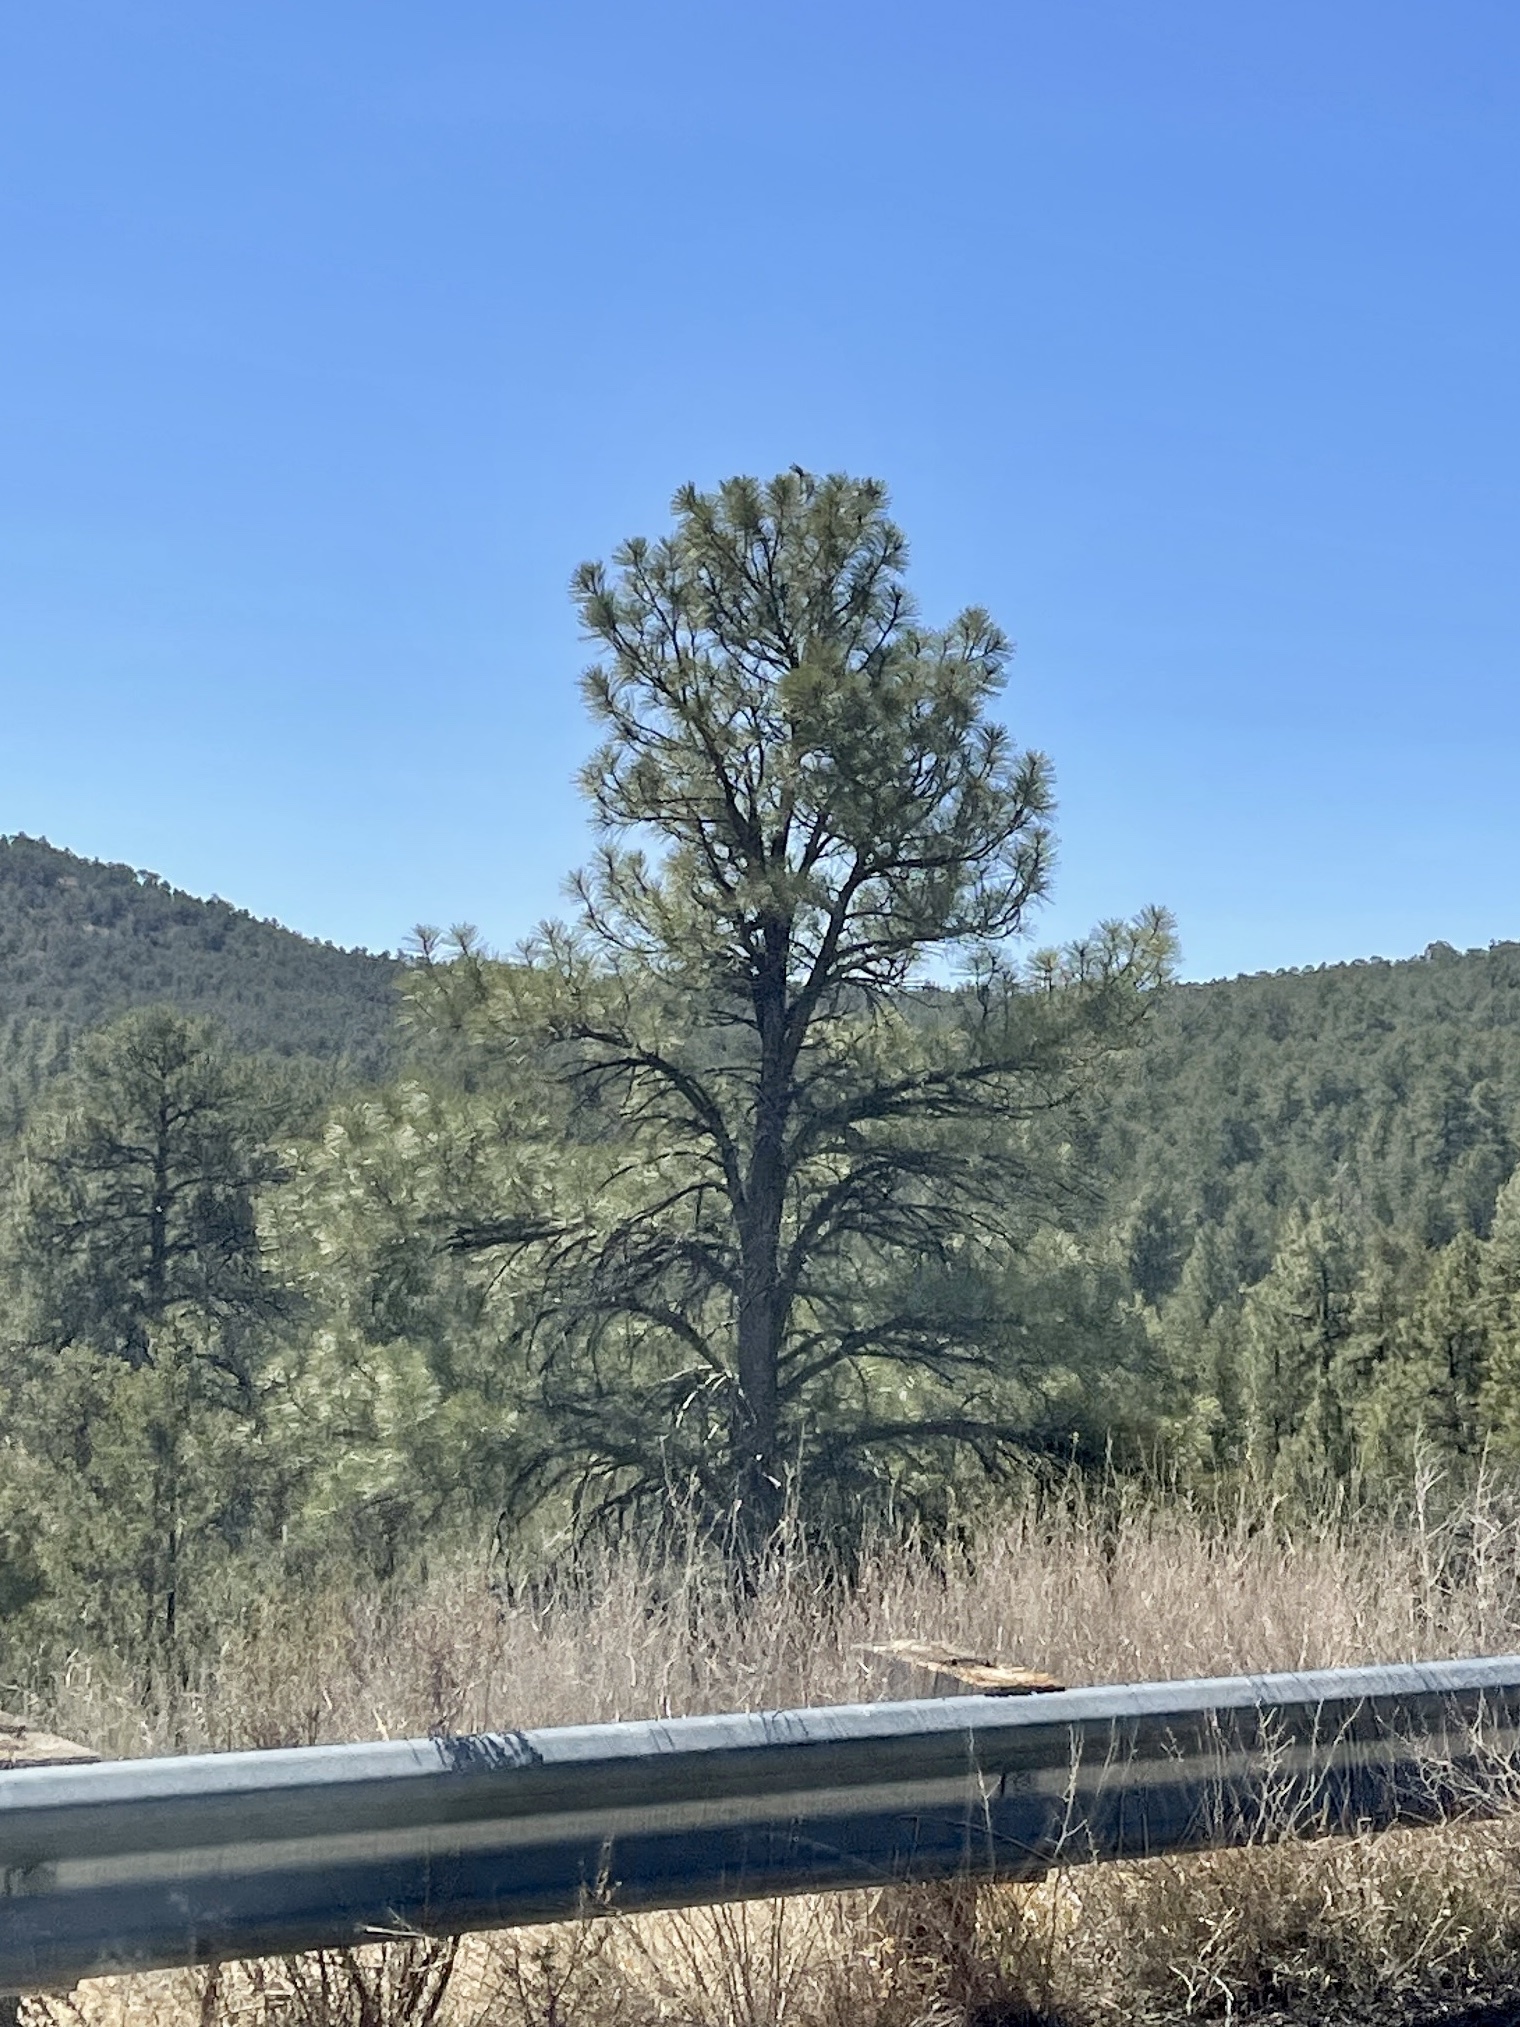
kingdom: Plantae
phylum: Tracheophyta
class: Pinopsida
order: Pinales
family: Pinaceae
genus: Pinus
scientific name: Pinus ponderosa
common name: Western yellow-pine
